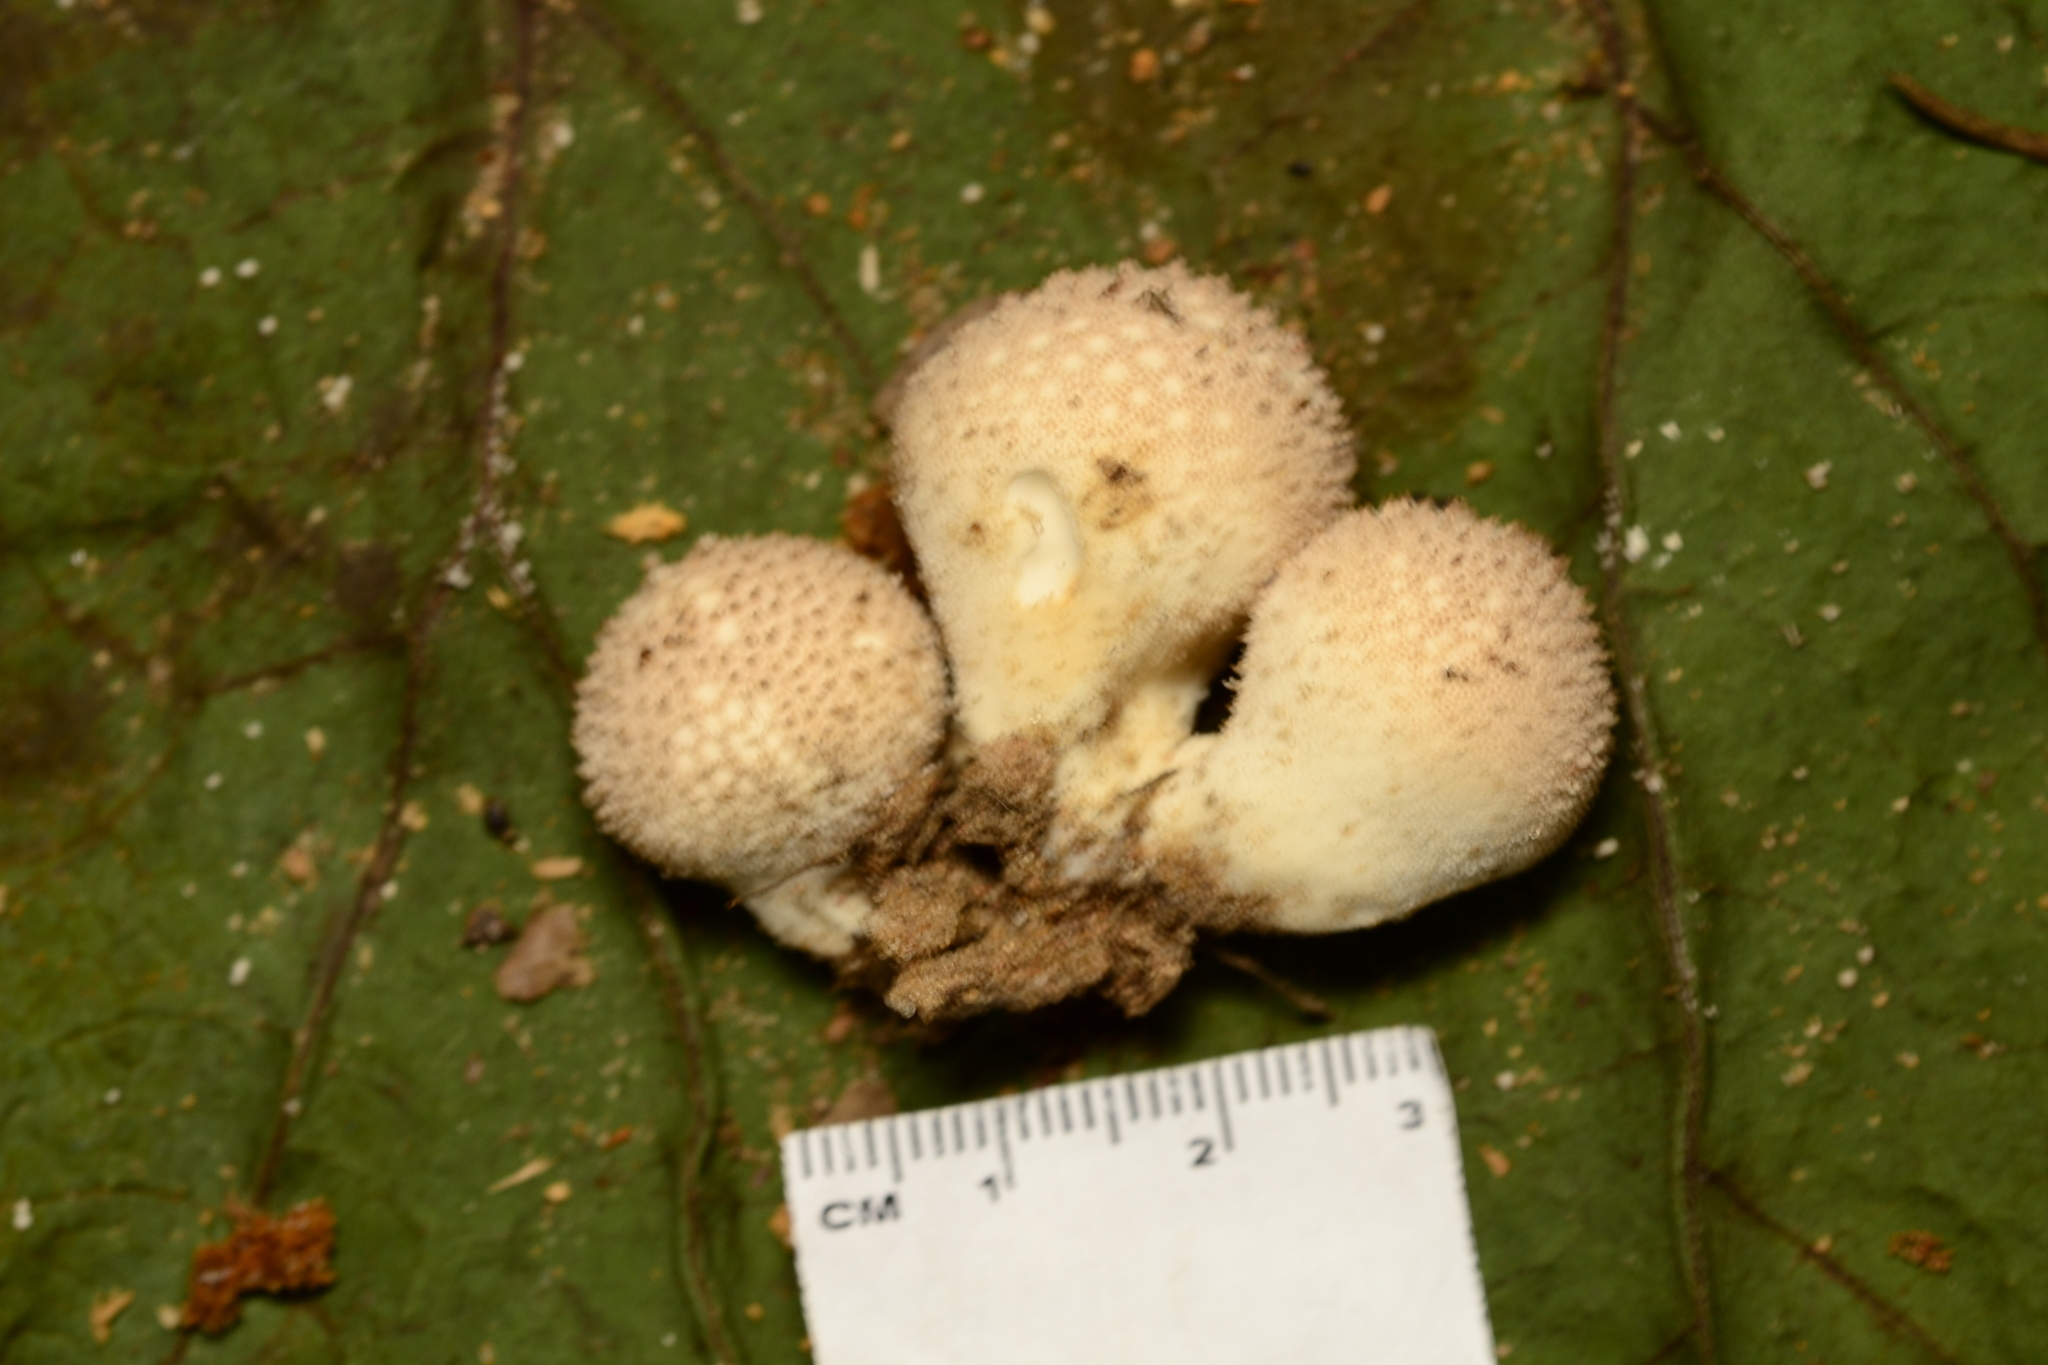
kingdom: Fungi
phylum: Basidiomycota
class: Agaricomycetes
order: Agaricales
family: Lycoperdaceae
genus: Lycoperdon
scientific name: Lycoperdon perlatum
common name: Common puffball
